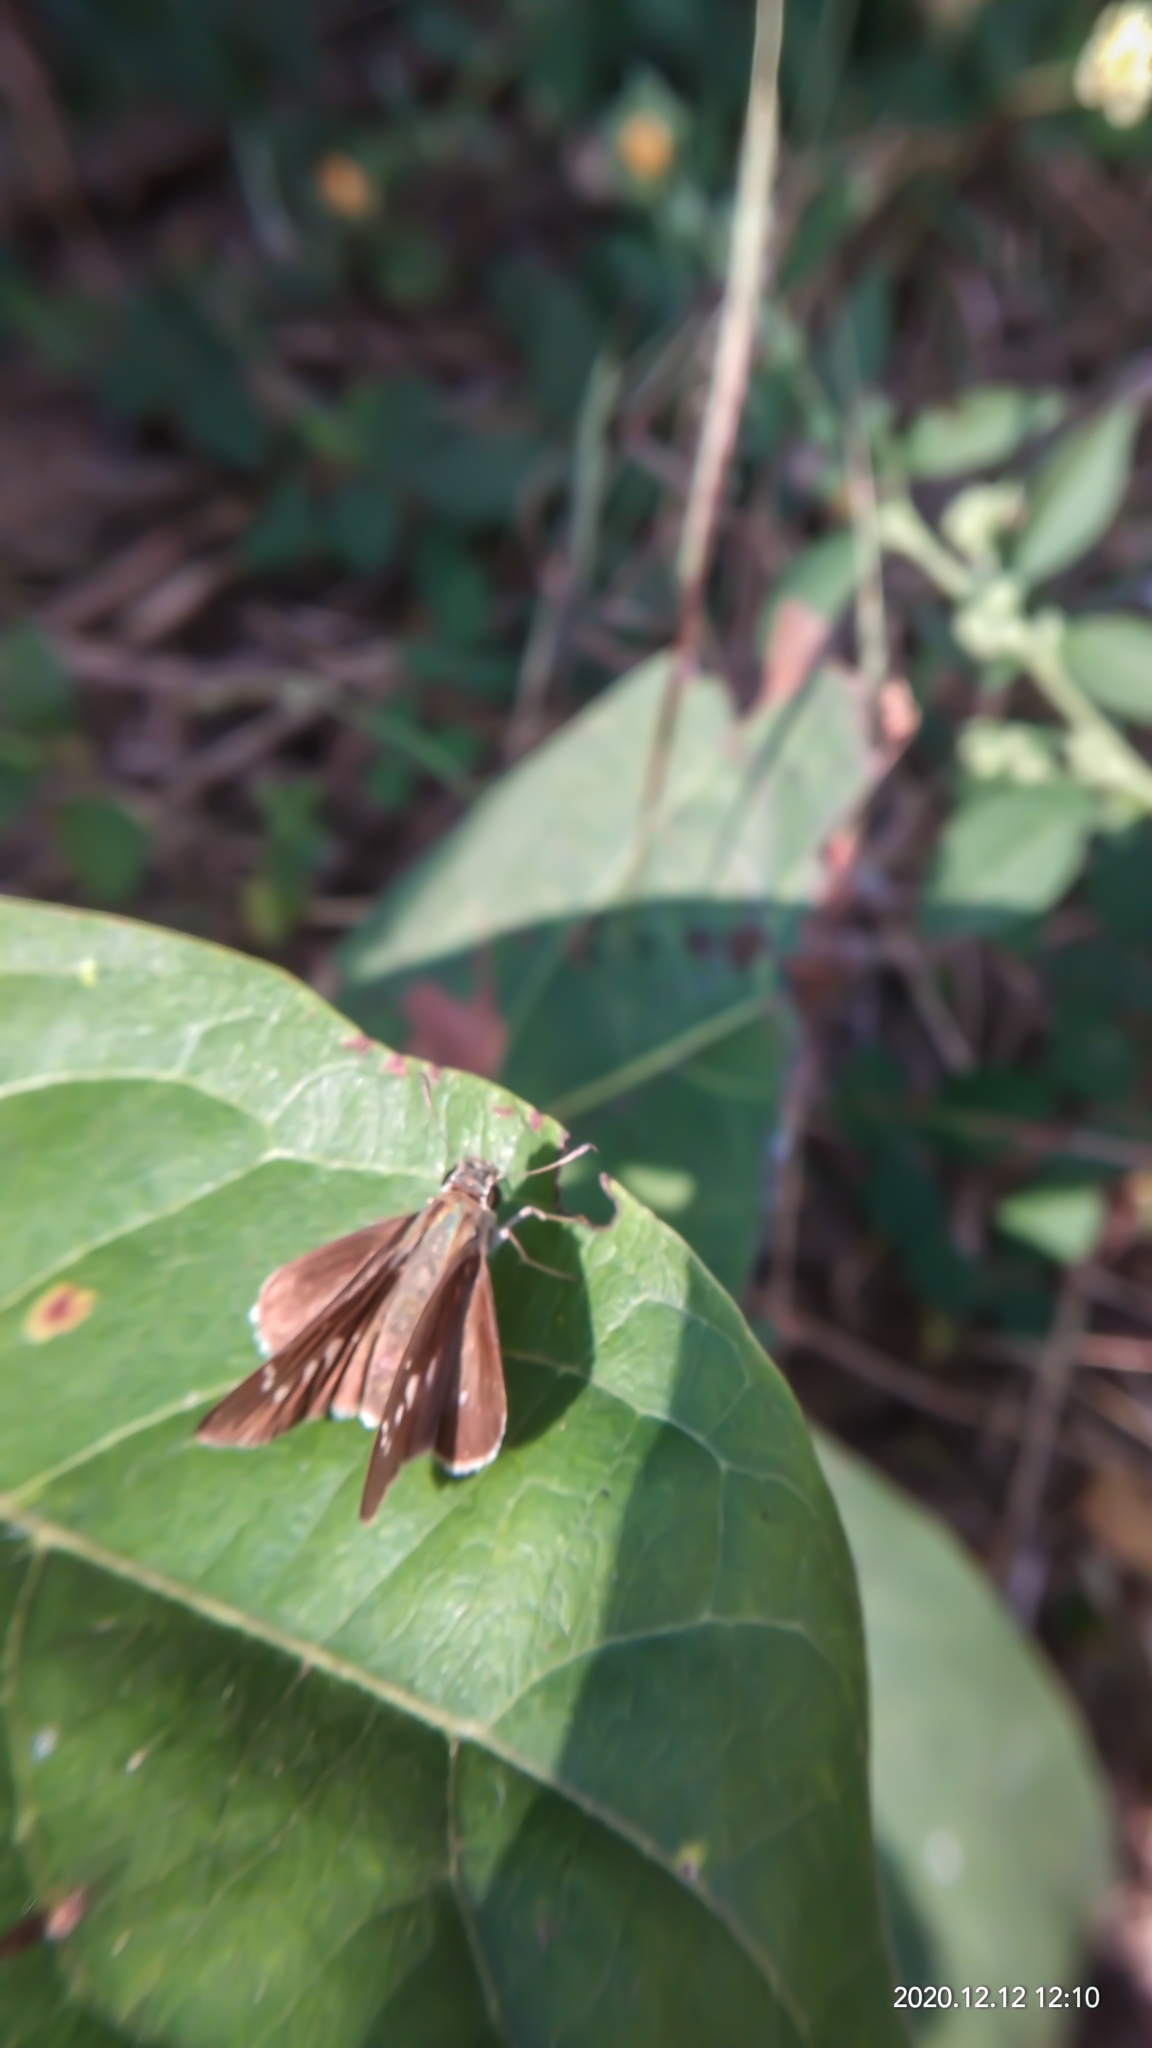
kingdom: Animalia
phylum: Arthropoda
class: Insecta
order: Lepidoptera
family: Hesperiidae
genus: Borbo
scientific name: Borbo cinnara
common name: Formosan swift
